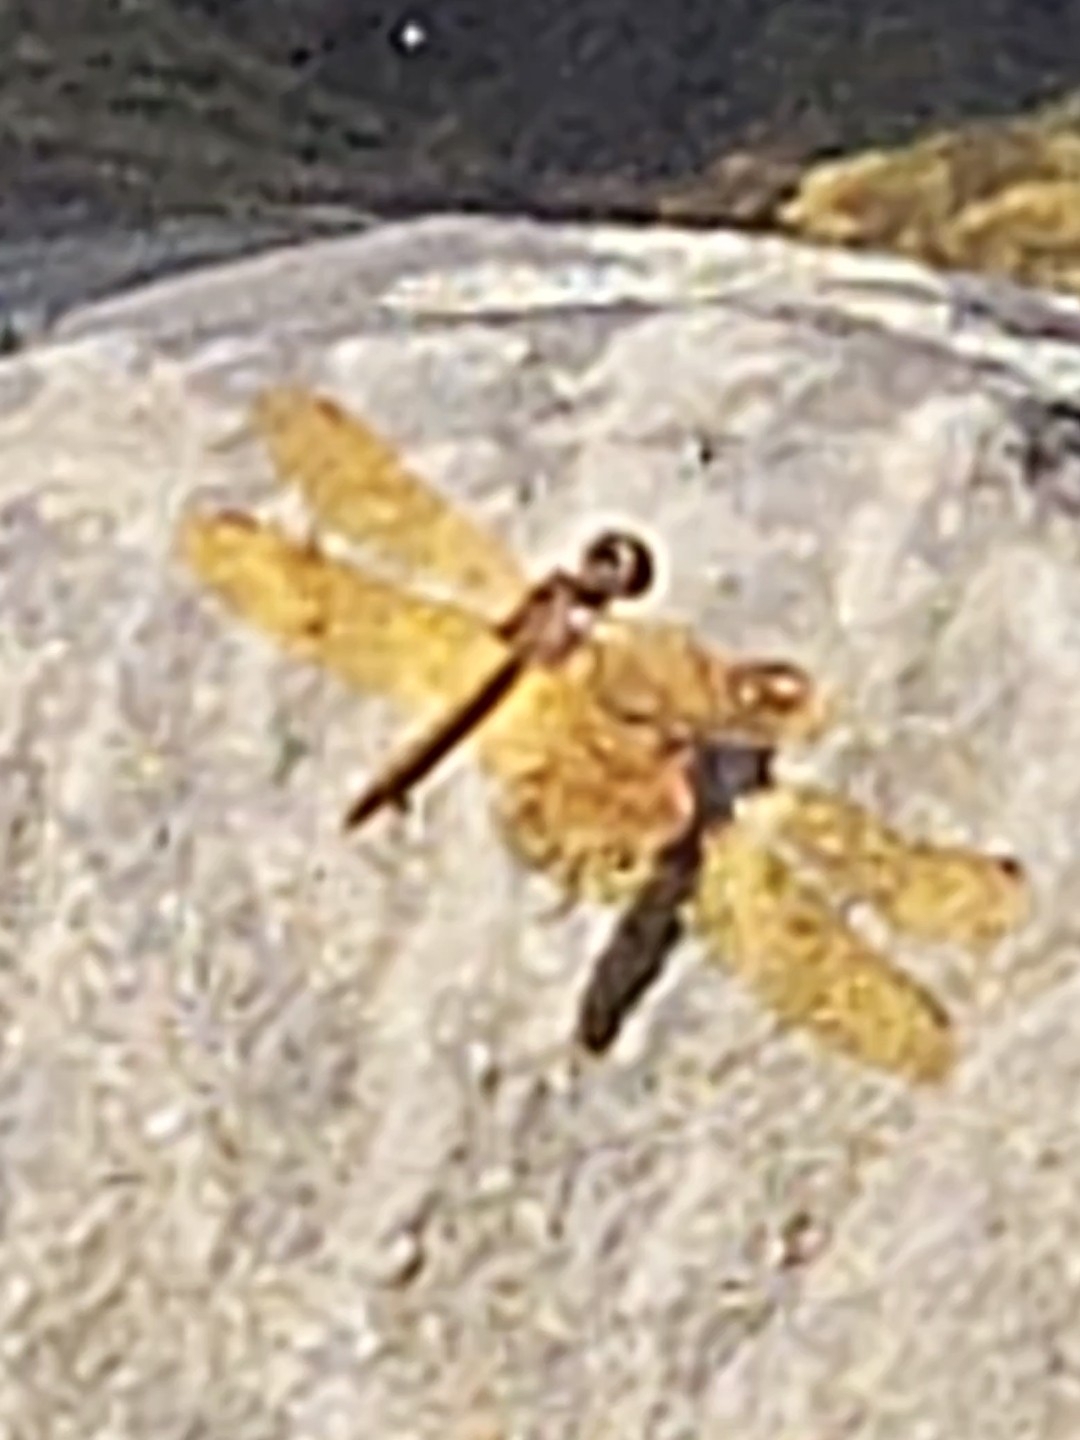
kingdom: Animalia
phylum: Arthropoda
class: Insecta
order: Odonata
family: Libellulidae
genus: Perithemis
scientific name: Perithemis tenera
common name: Eastern amberwing
